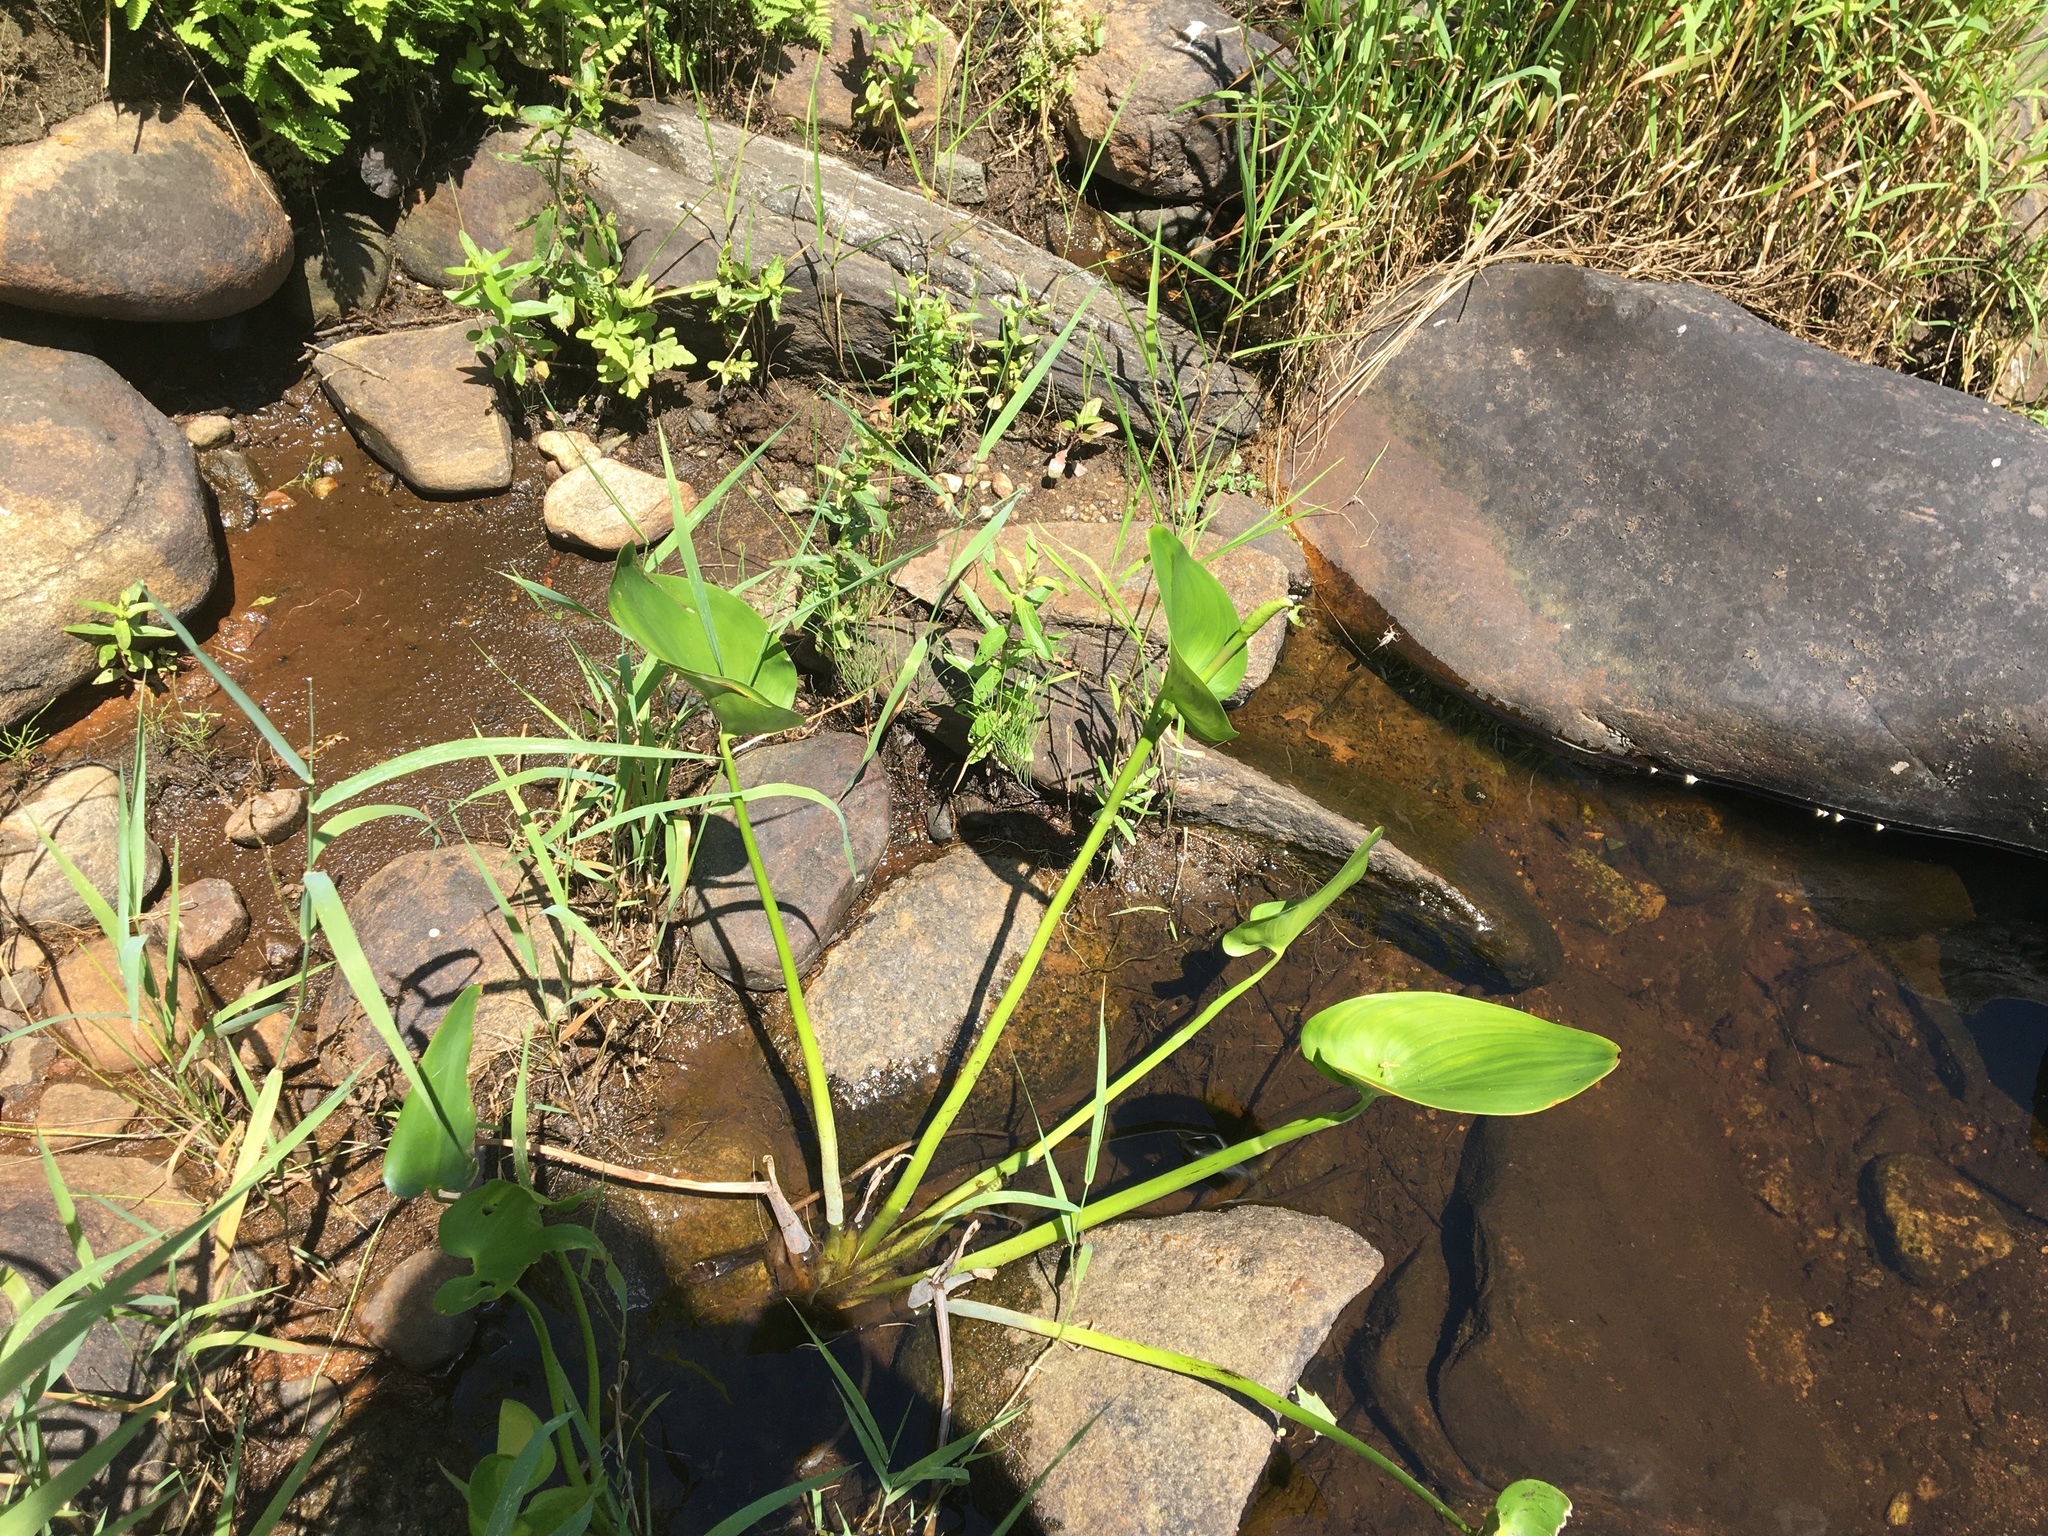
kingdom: Plantae
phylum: Tracheophyta
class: Liliopsida
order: Commelinales
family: Pontederiaceae
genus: Pontederia
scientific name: Pontederia cordata
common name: Pickerelweed
